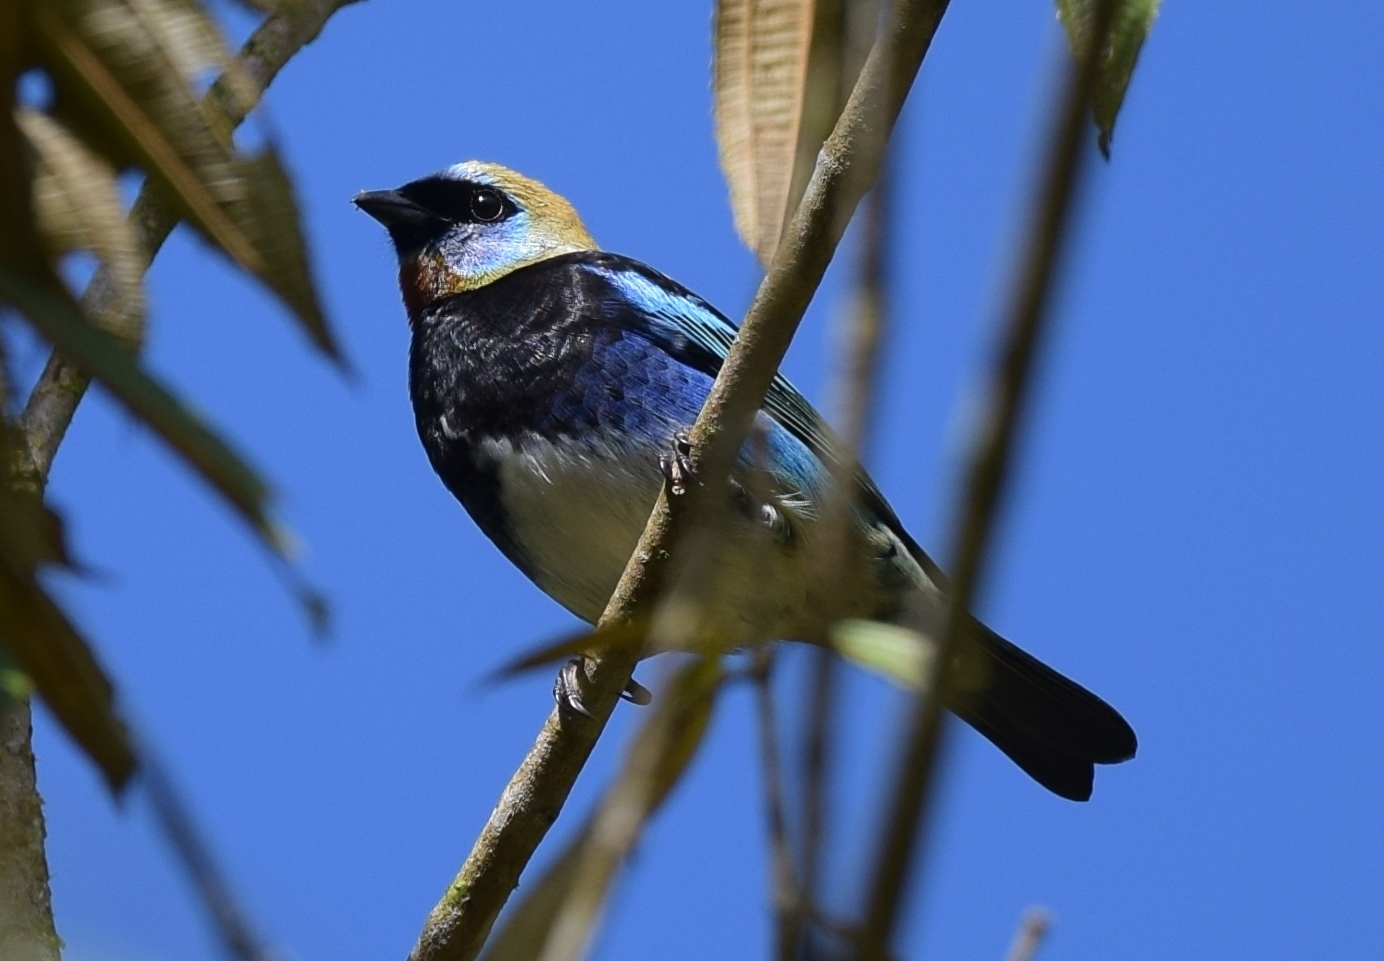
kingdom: Animalia
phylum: Chordata
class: Aves
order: Passeriformes
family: Thraupidae
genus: Stilpnia
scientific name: Stilpnia larvata
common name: Golden-hooded tanager
